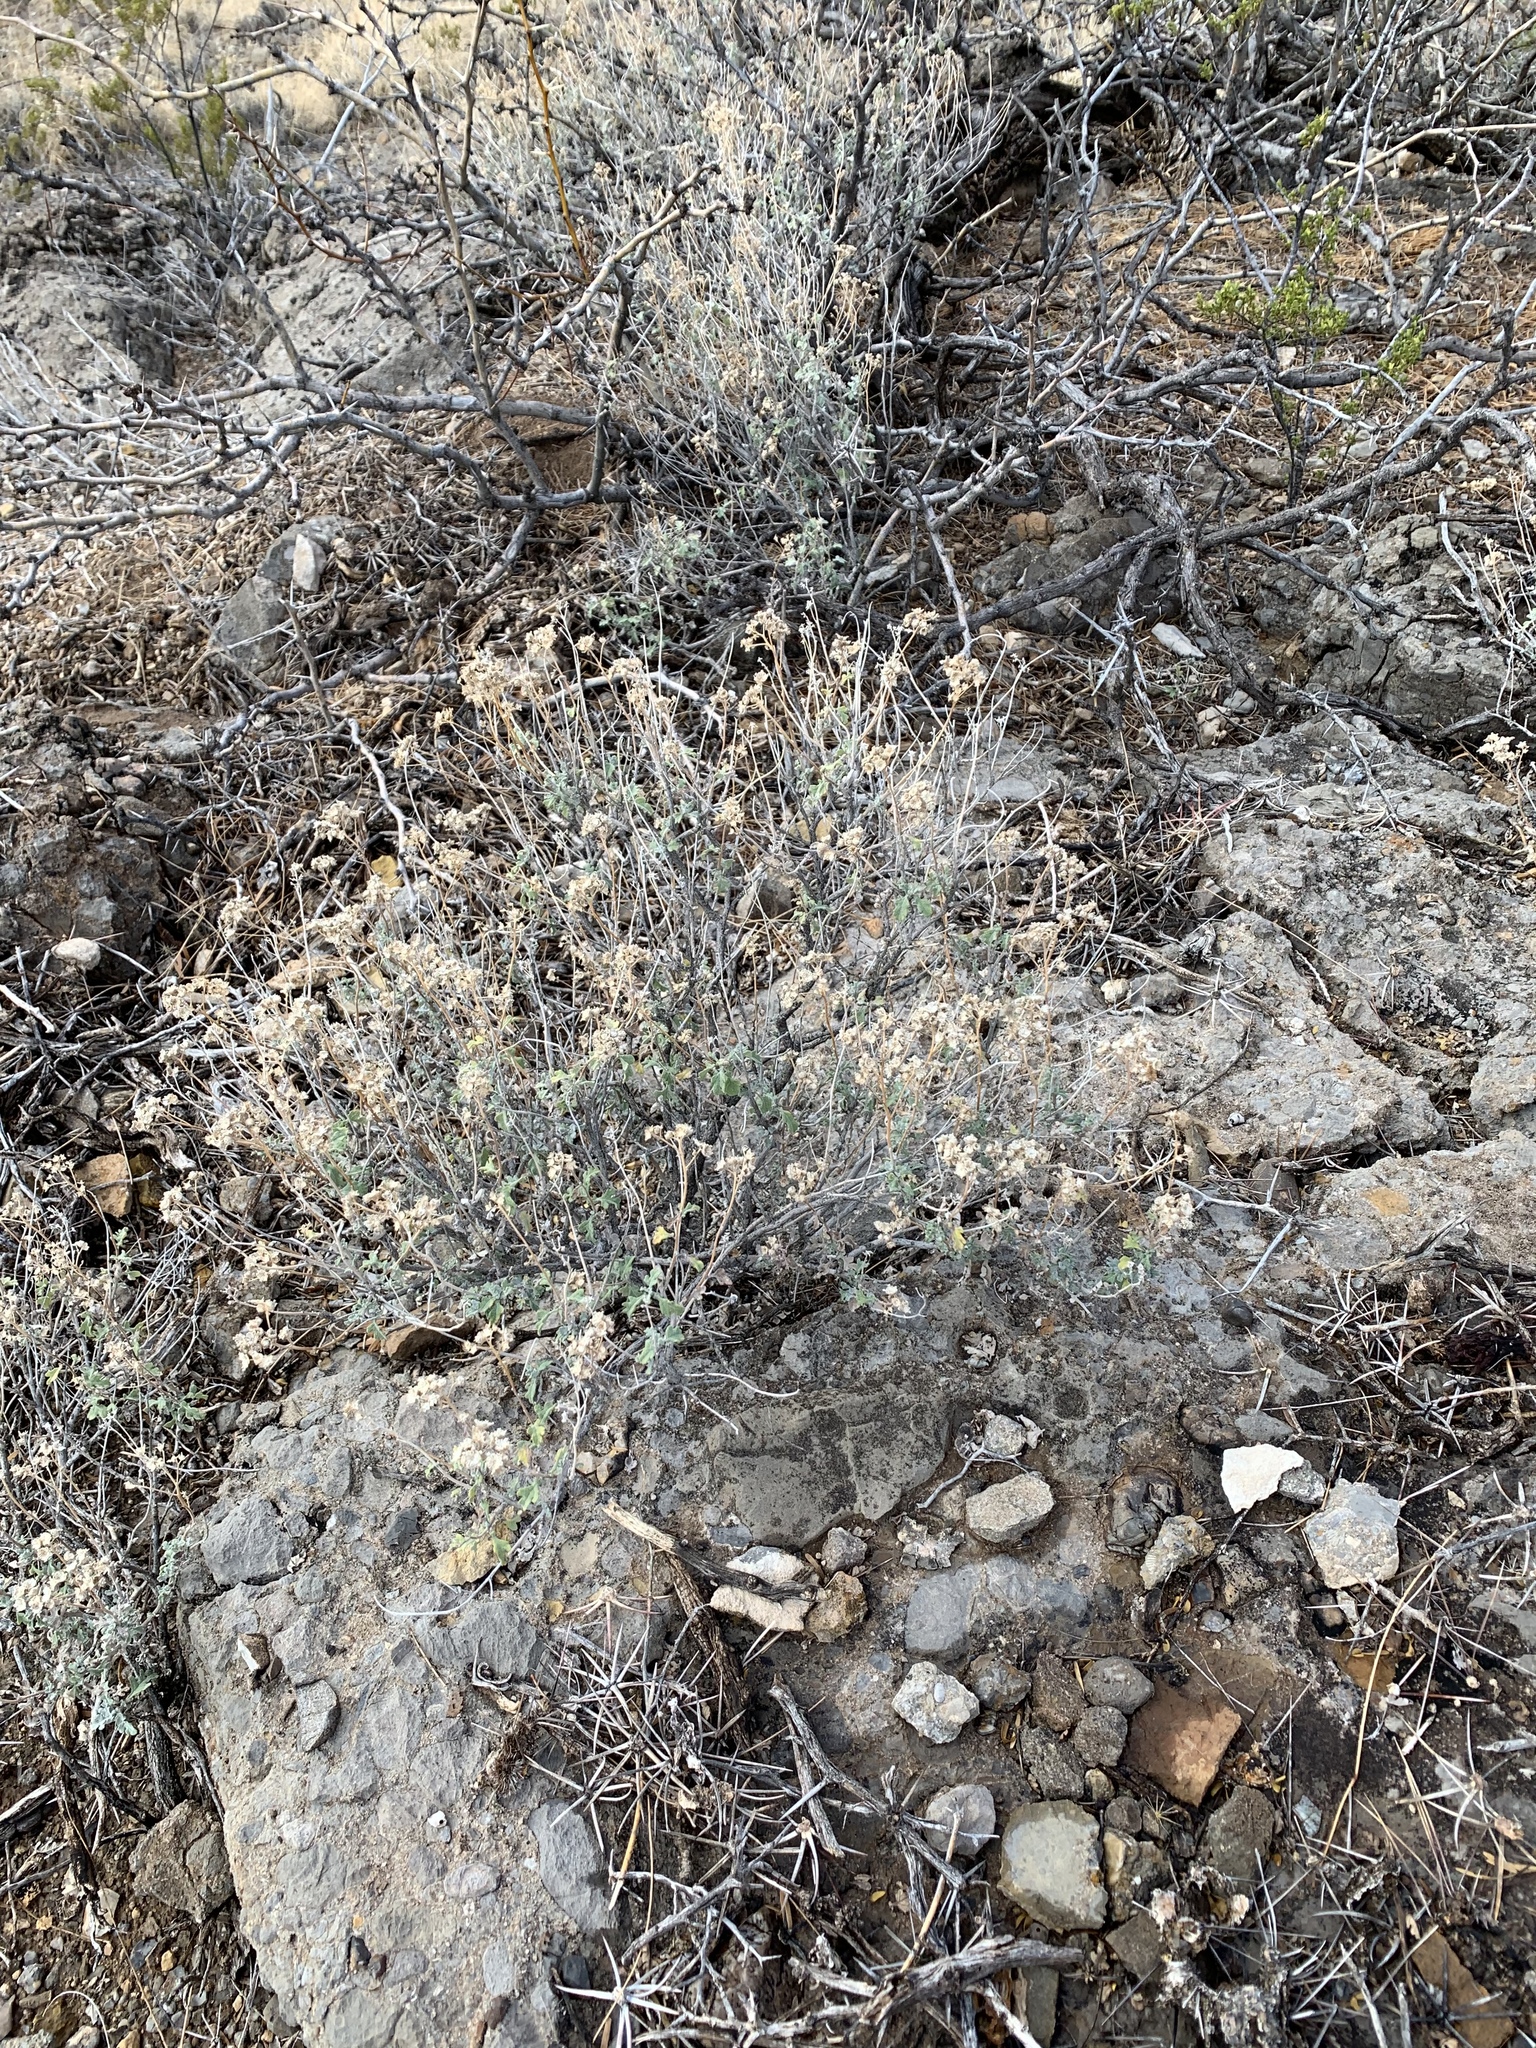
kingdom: Plantae
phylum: Tracheophyta
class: Magnoliopsida
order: Asterales
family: Asteraceae
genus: Parthenium
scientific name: Parthenium incanum
